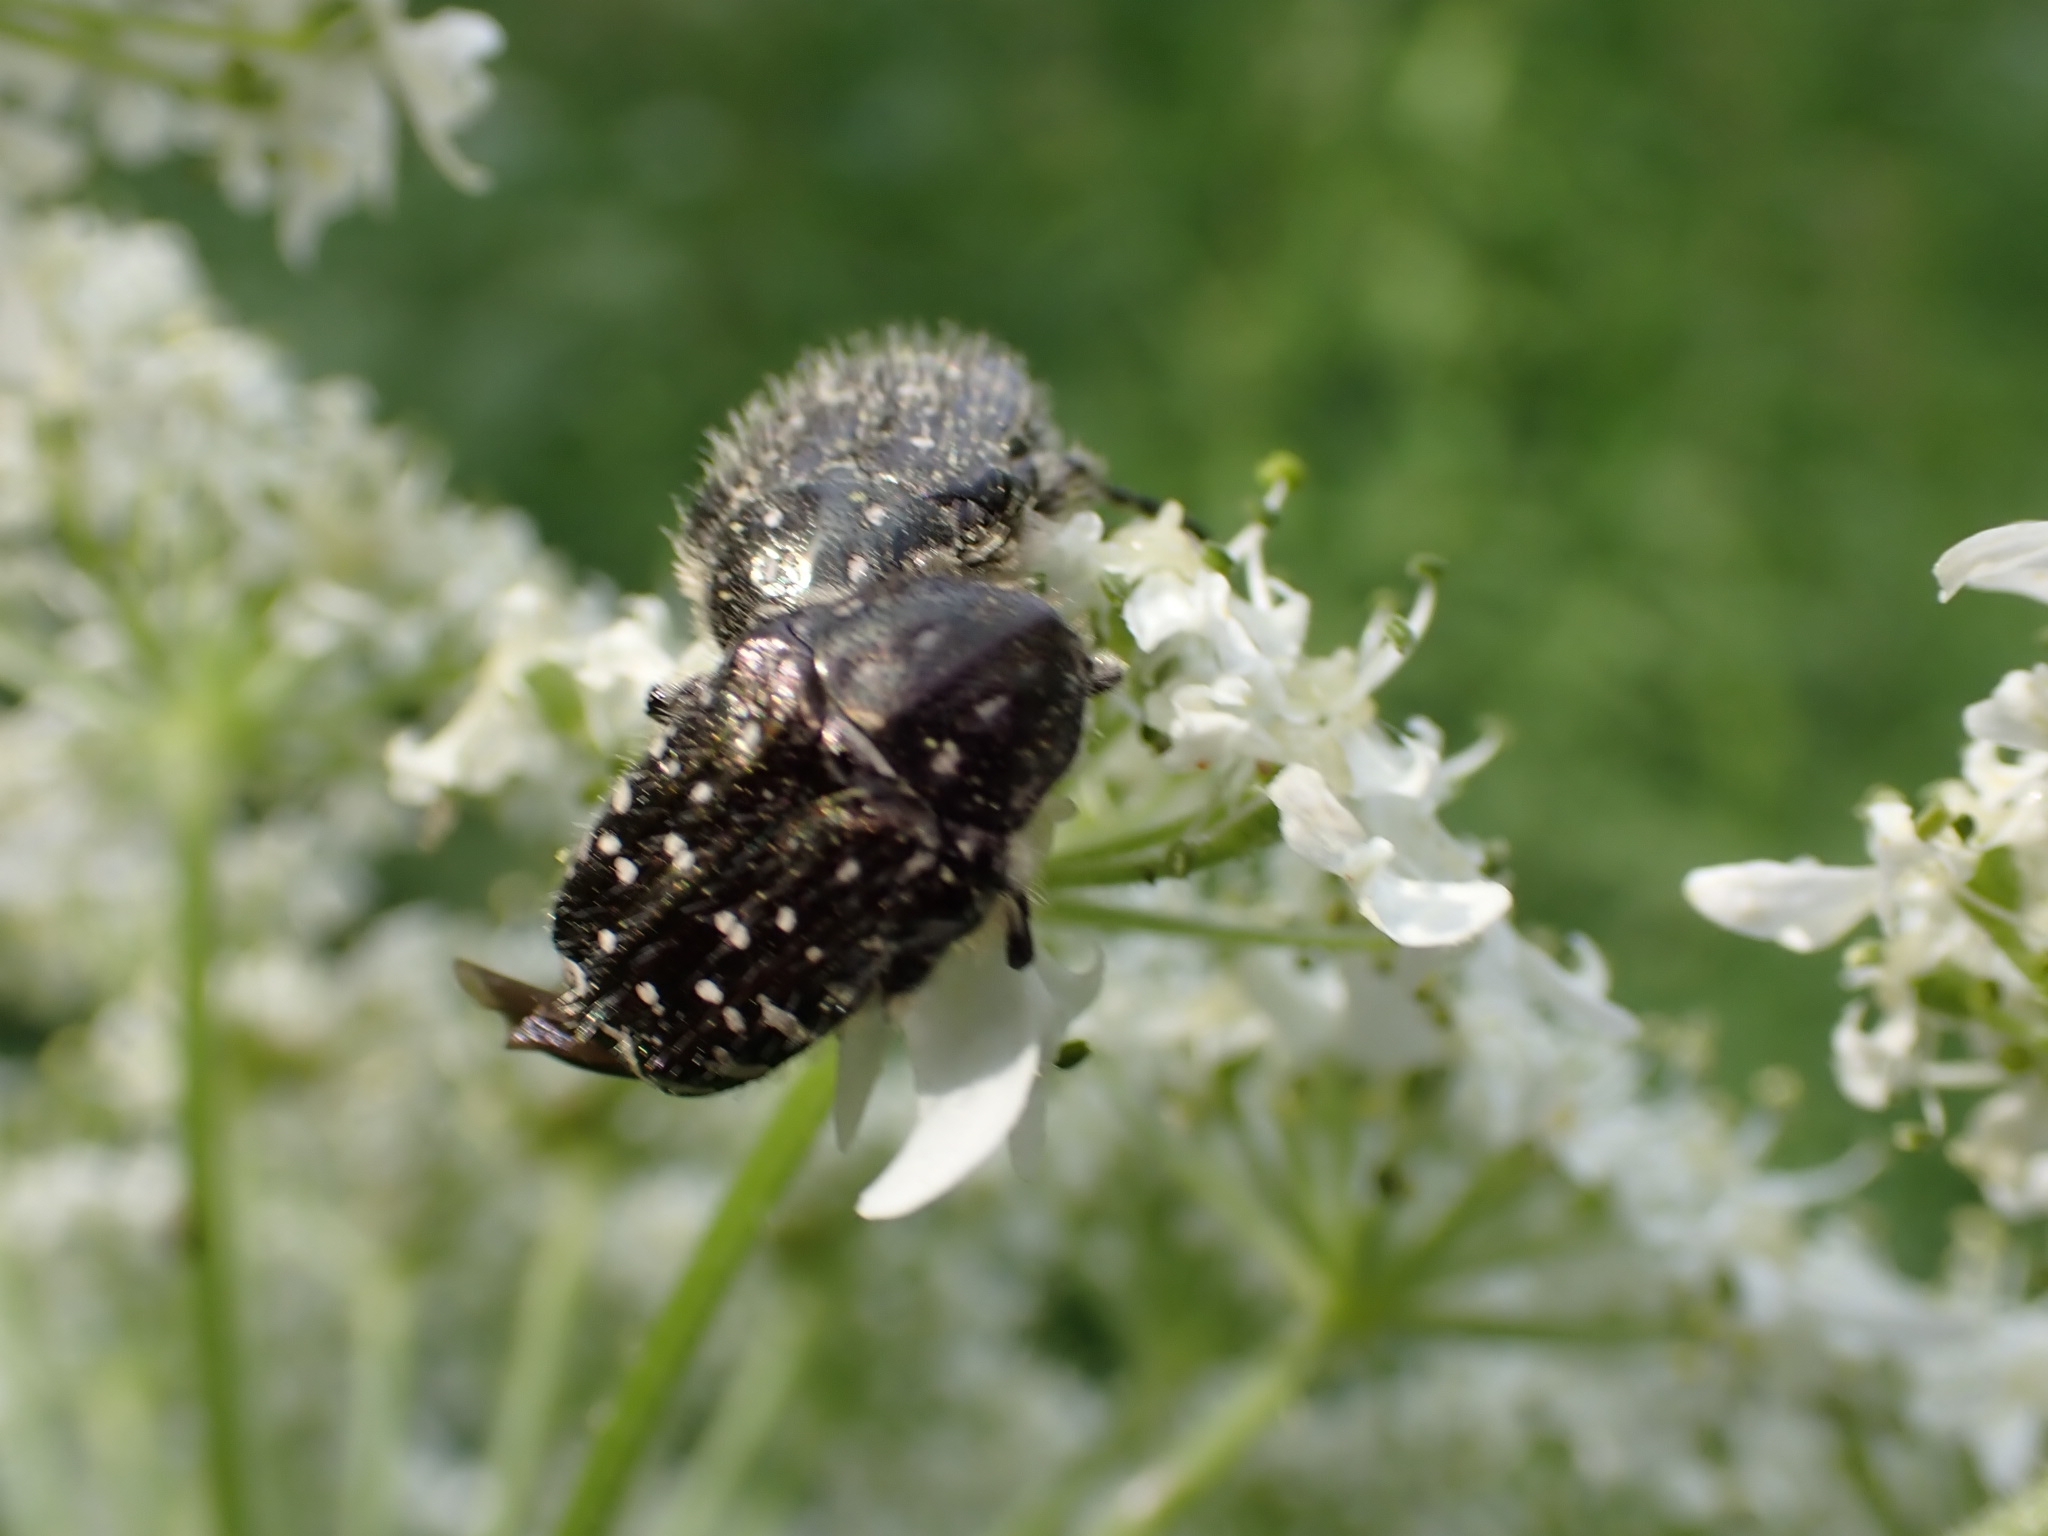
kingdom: Animalia
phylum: Arthropoda
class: Insecta
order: Coleoptera
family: Scarabaeidae
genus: Oxythyrea
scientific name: Oxythyrea funesta
